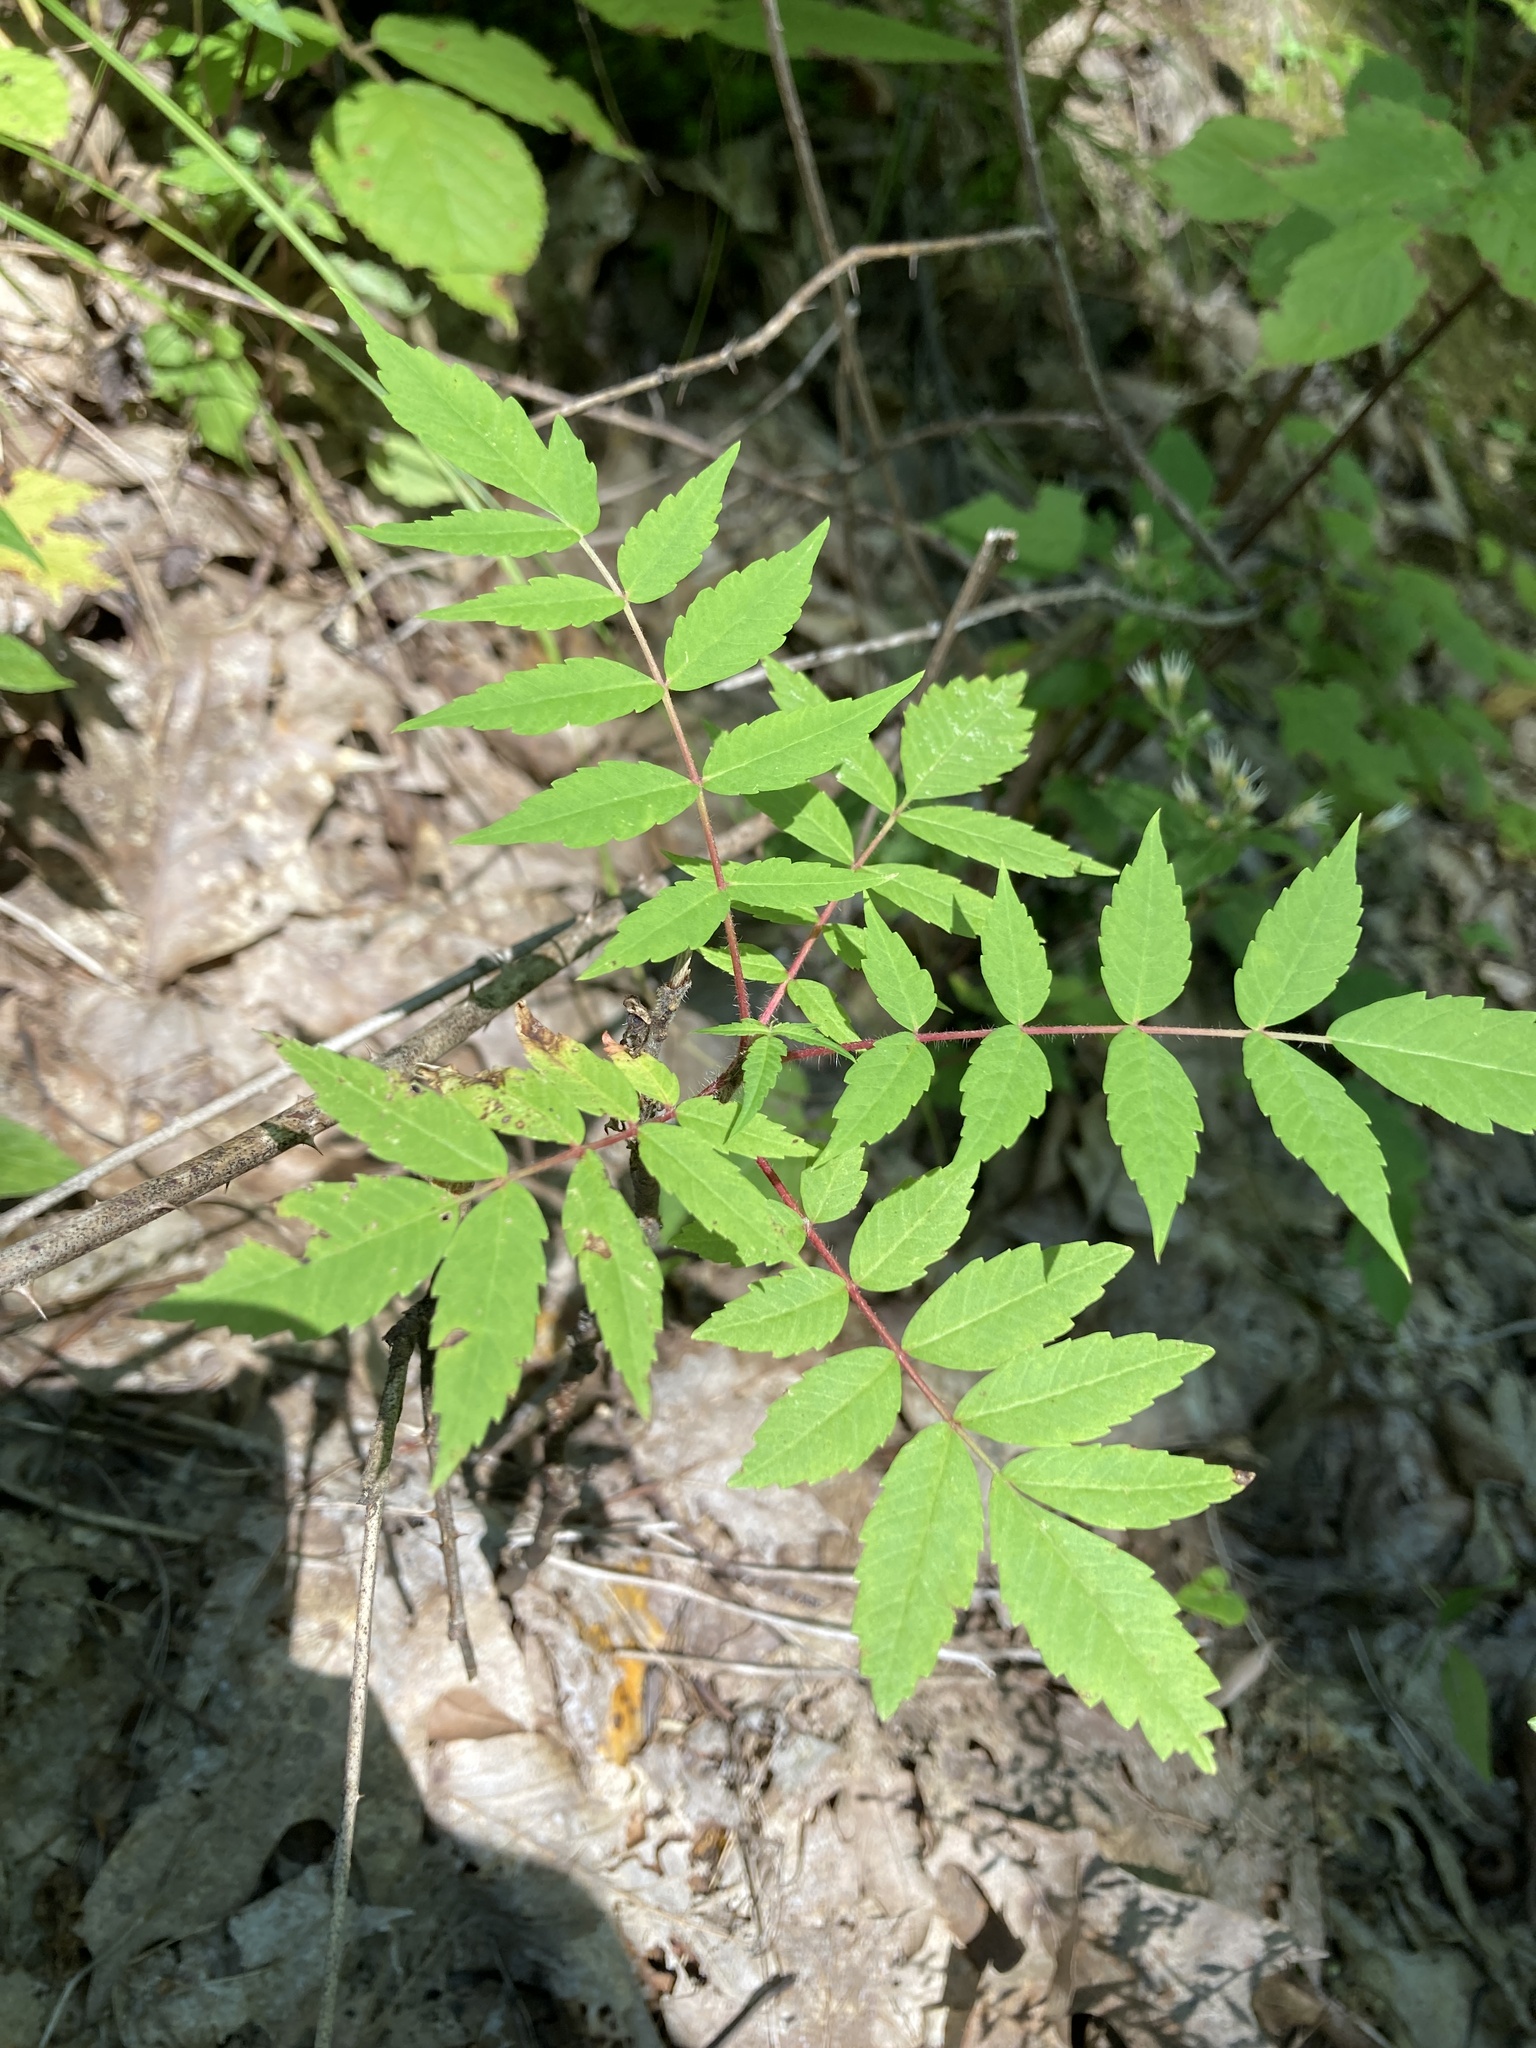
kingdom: Plantae
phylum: Tracheophyta
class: Magnoliopsida
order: Sapindales
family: Anacardiaceae
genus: Rhus
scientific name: Rhus typhina
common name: Staghorn sumac
